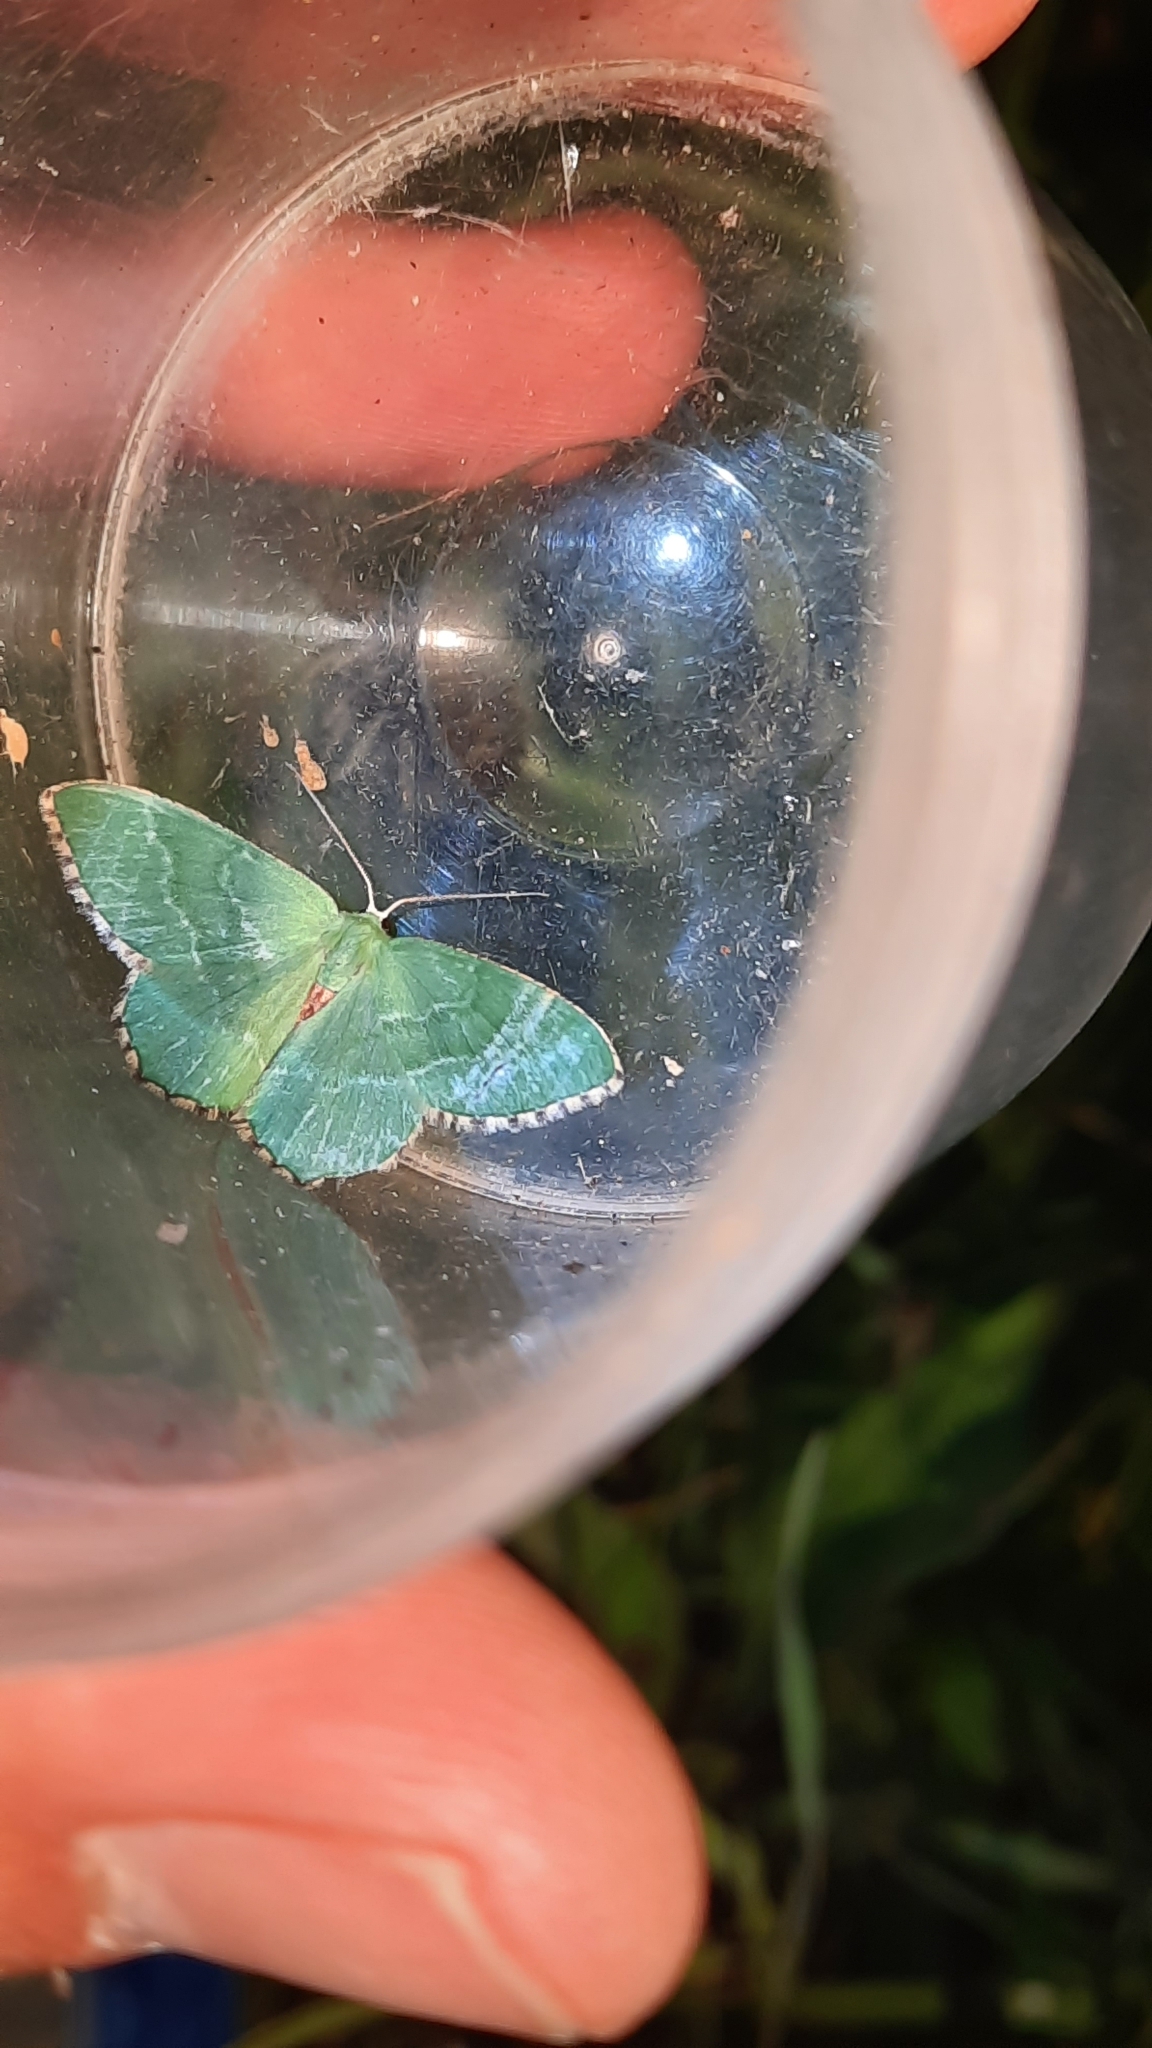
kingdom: Animalia
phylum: Arthropoda
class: Insecta
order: Lepidoptera
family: Geometridae
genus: Hemithea
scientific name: Hemithea aestivaria
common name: Common emerald
